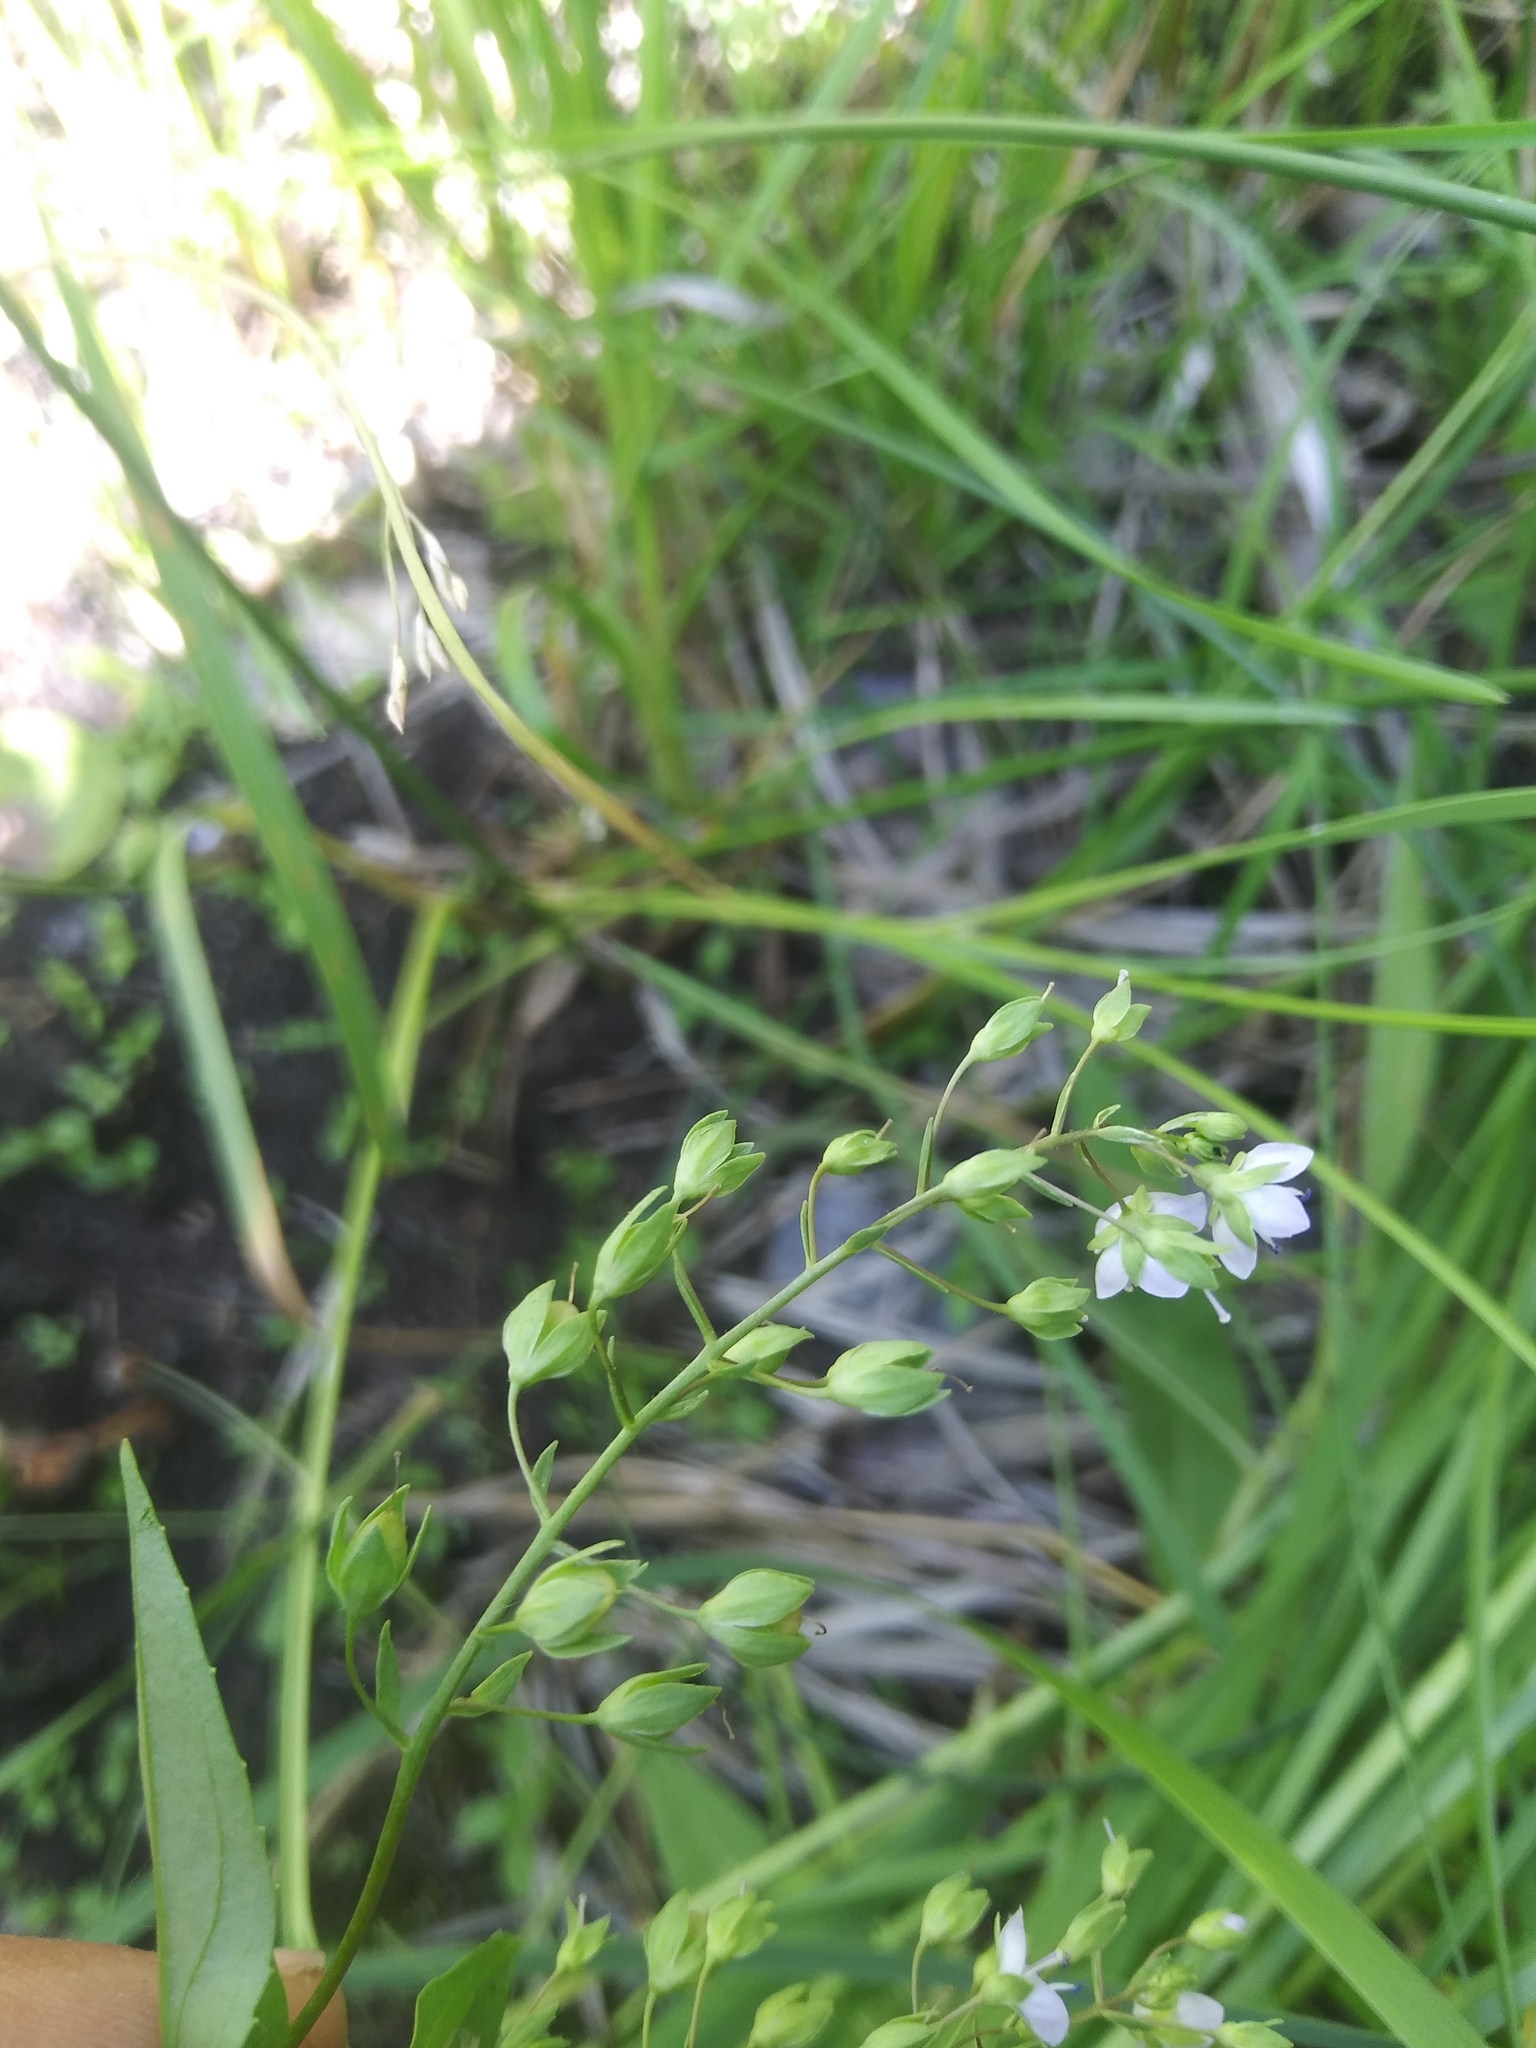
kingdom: Plantae
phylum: Tracheophyta
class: Magnoliopsida
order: Lamiales
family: Plantaginaceae
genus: Veronica
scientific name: Veronica anagallis-aquatica
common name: Water speedwell
